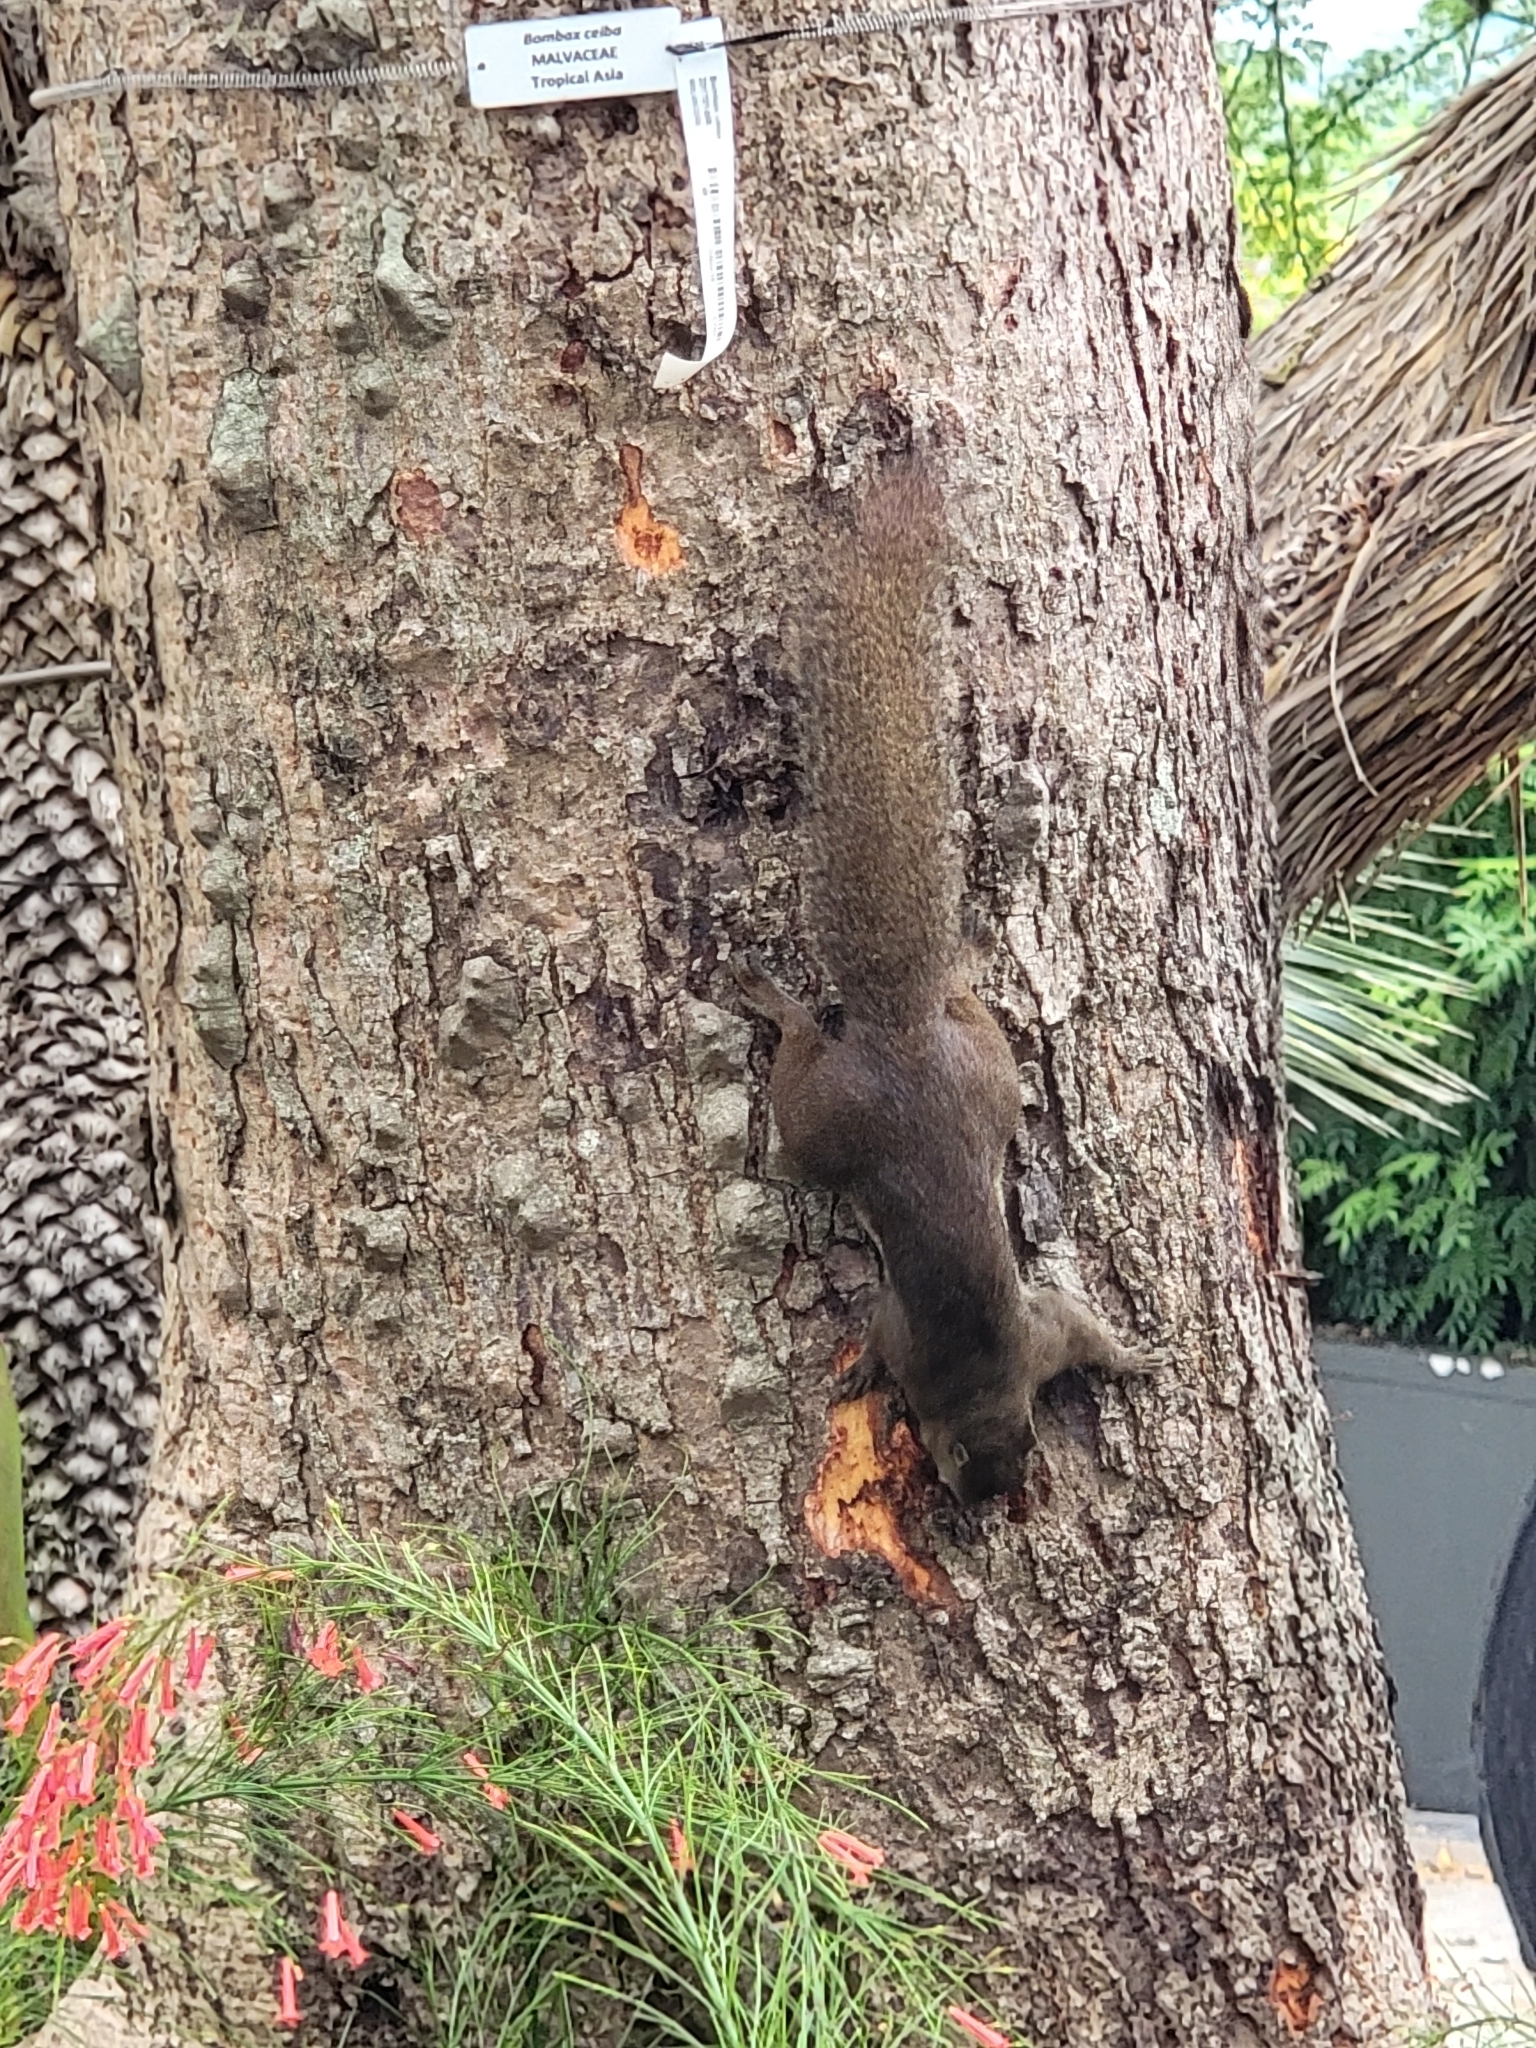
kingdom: Animalia
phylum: Chordata
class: Mammalia
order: Rodentia
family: Sciuridae
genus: Callosciurus
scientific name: Callosciurus notatus
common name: Plantain squirrel
